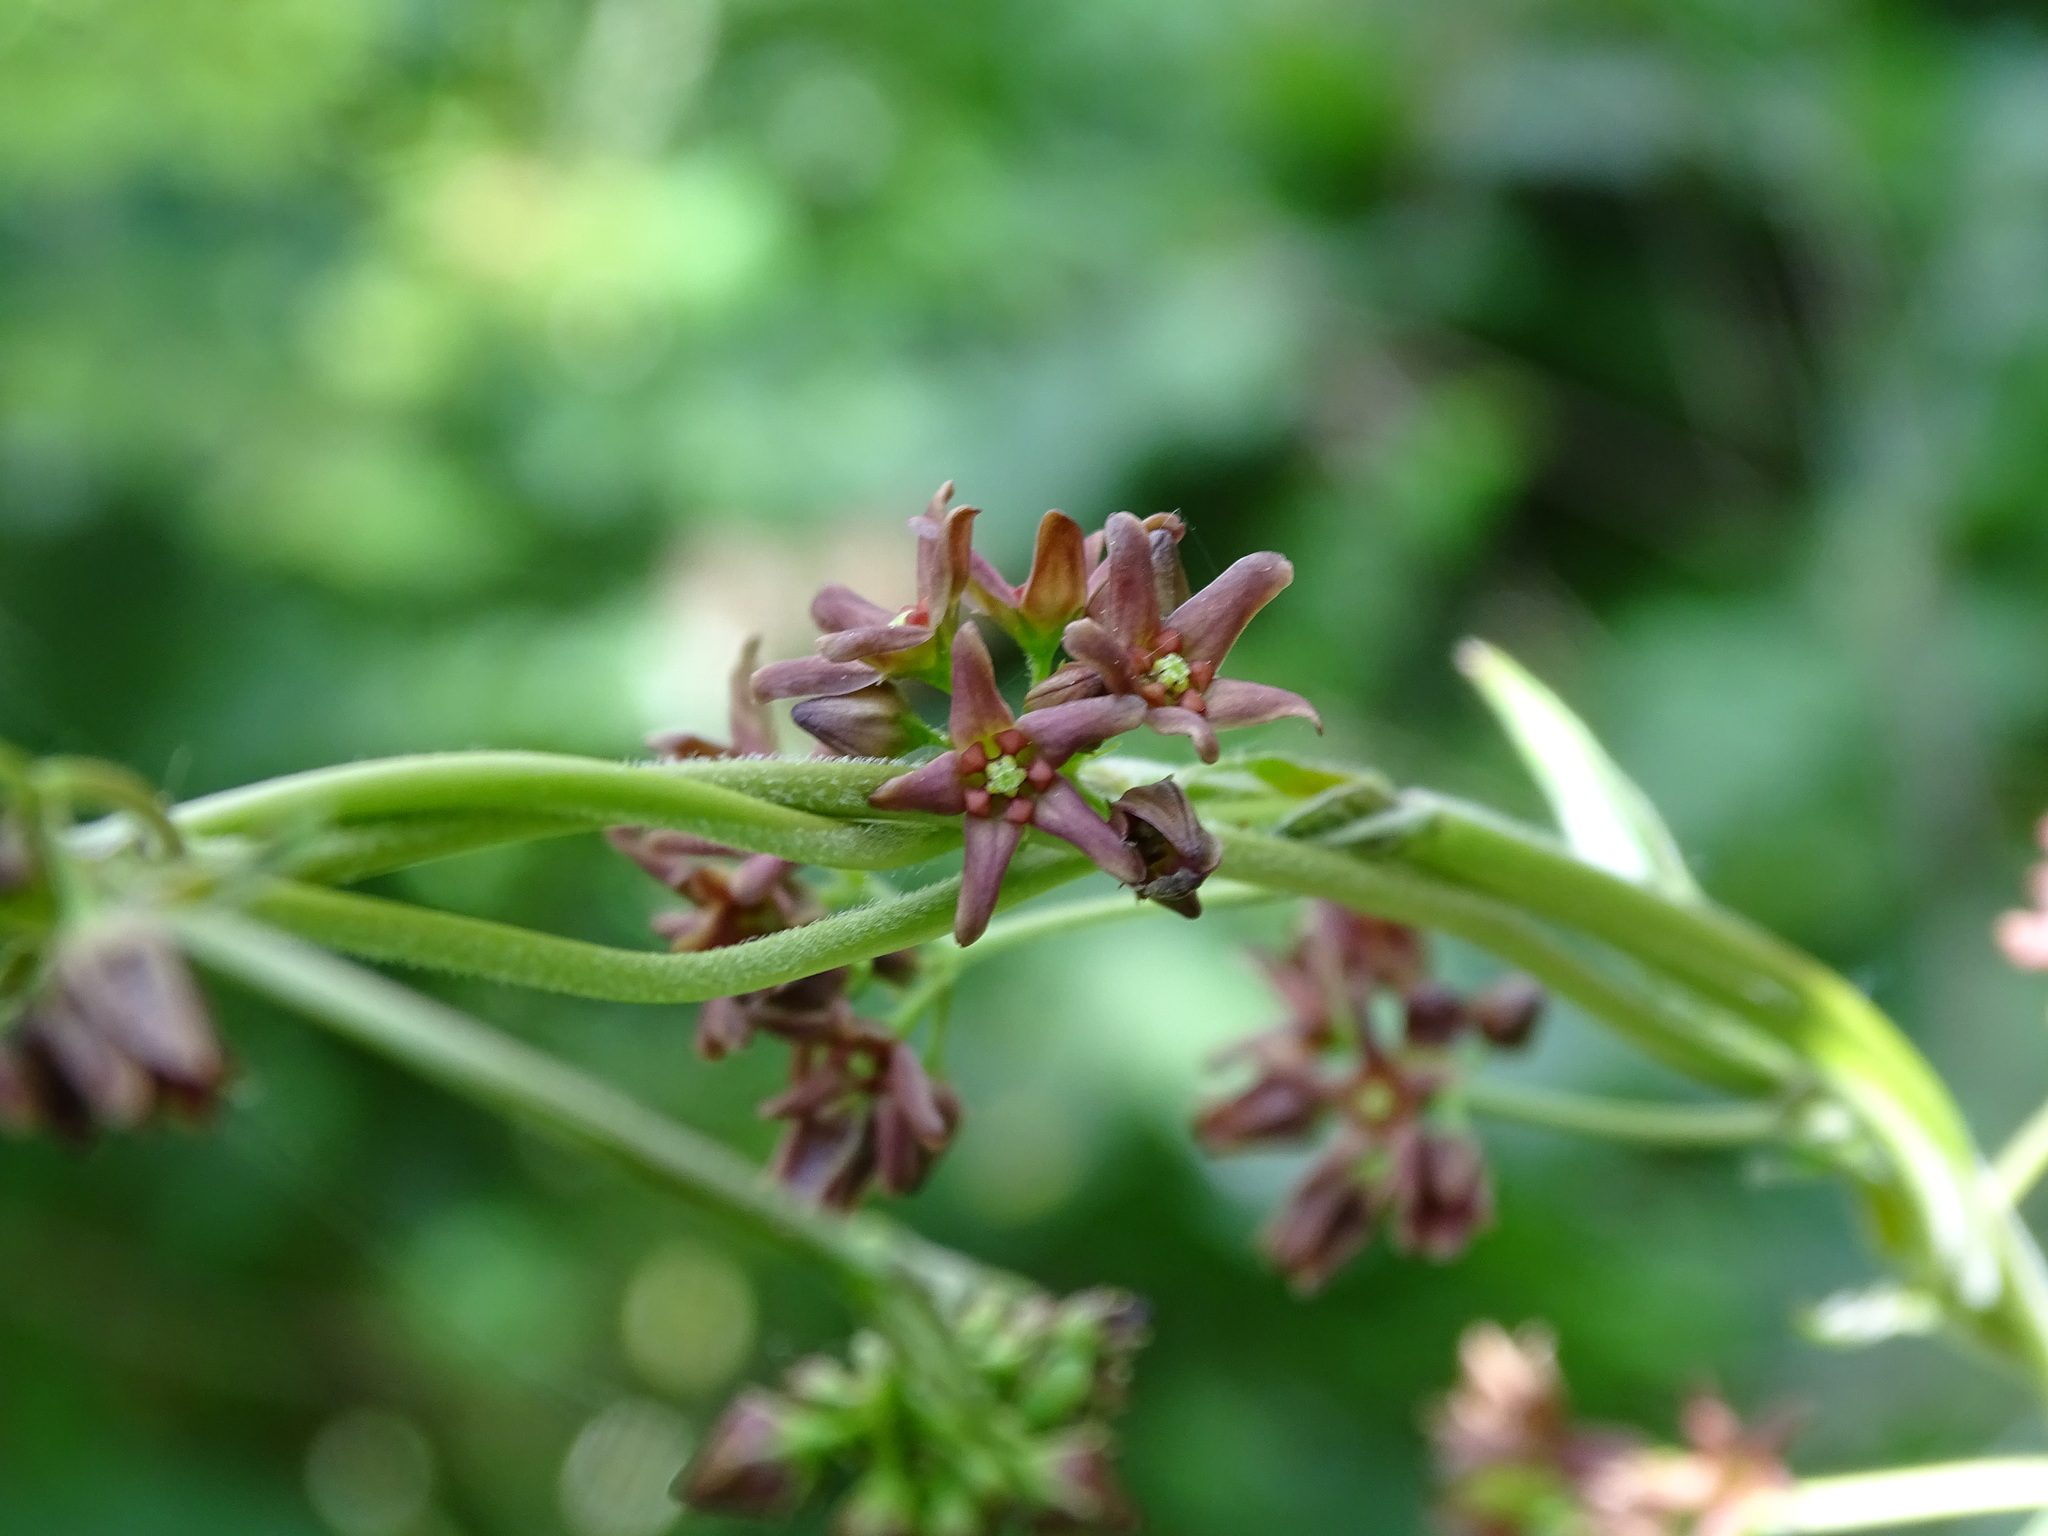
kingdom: Plantae
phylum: Tracheophyta
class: Magnoliopsida
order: Gentianales
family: Apocynaceae
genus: Vincetoxicum
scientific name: Vincetoxicum rossicum
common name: Dog-strangling vine
